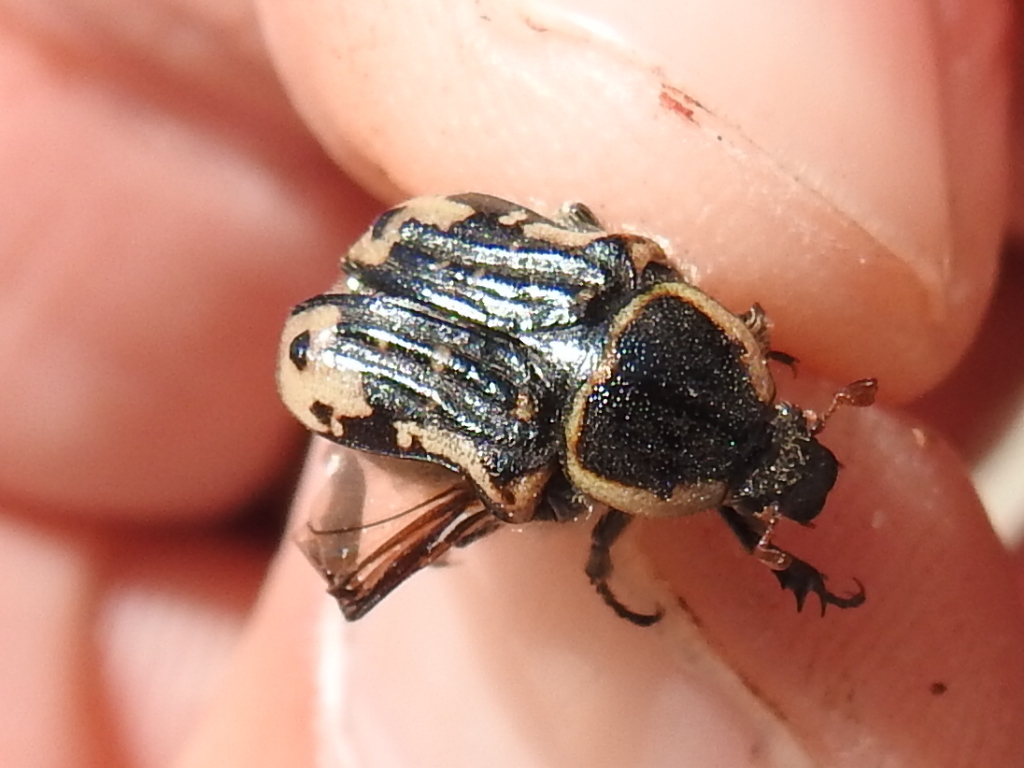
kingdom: Animalia
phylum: Arthropoda
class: Insecta
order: Coleoptera
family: Scarabaeidae
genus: Euphoria
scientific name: Euphoria kernii
